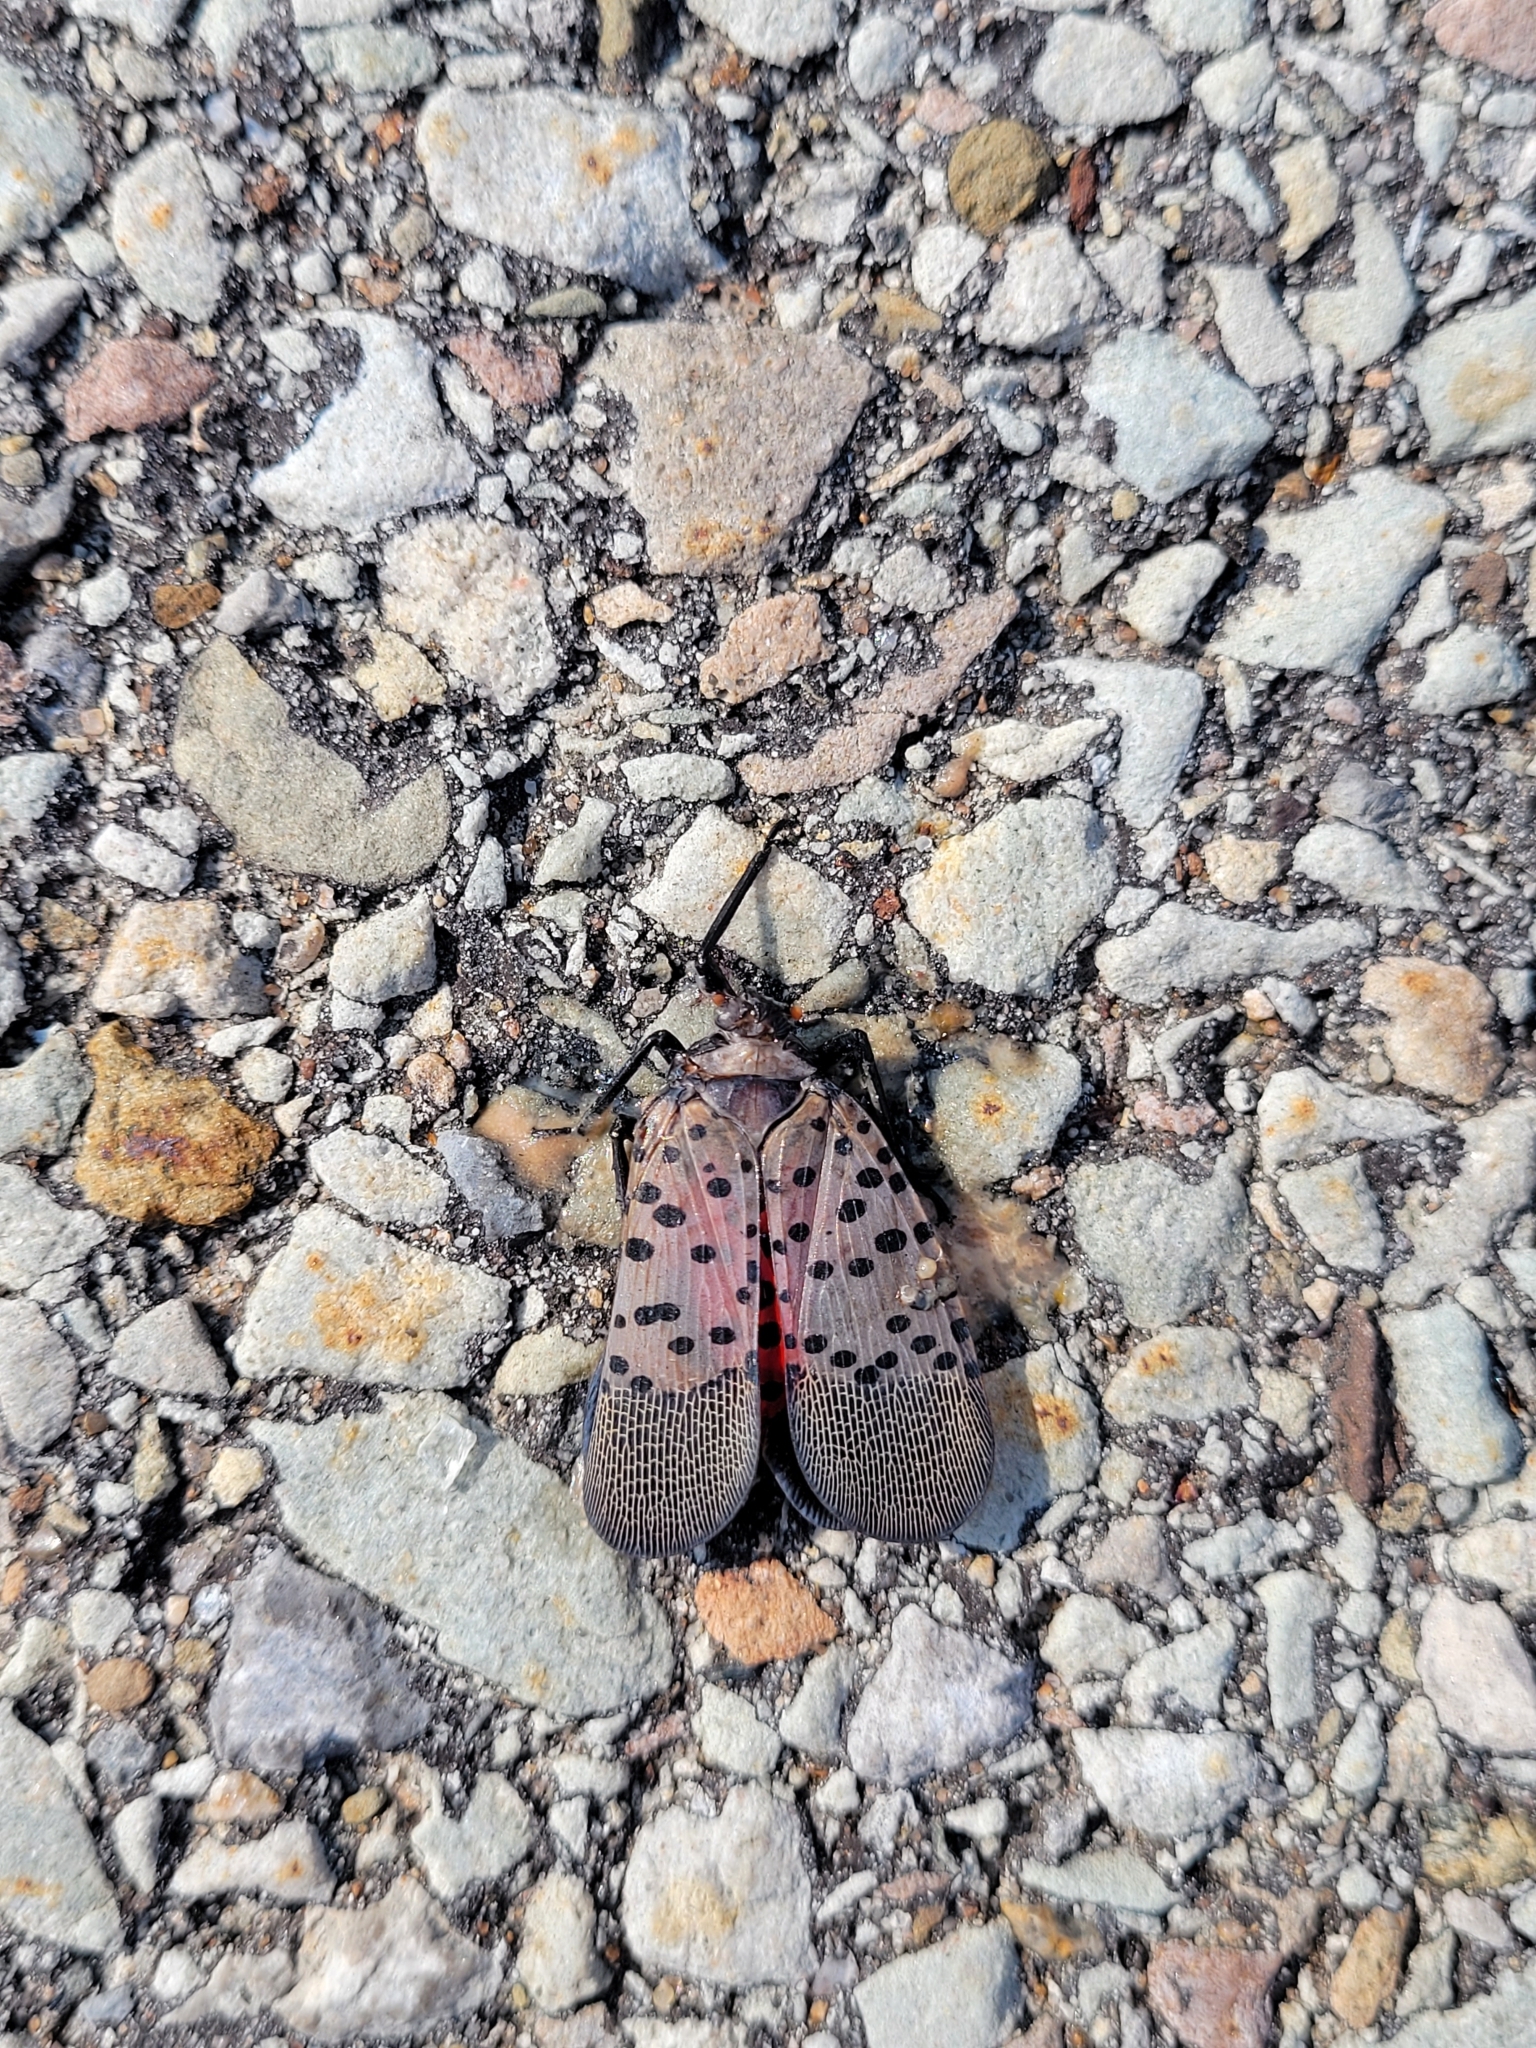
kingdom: Animalia
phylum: Arthropoda
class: Insecta
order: Hemiptera
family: Fulgoridae
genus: Lycorma
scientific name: Lycorma delicatula
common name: Spotted lanternfly
